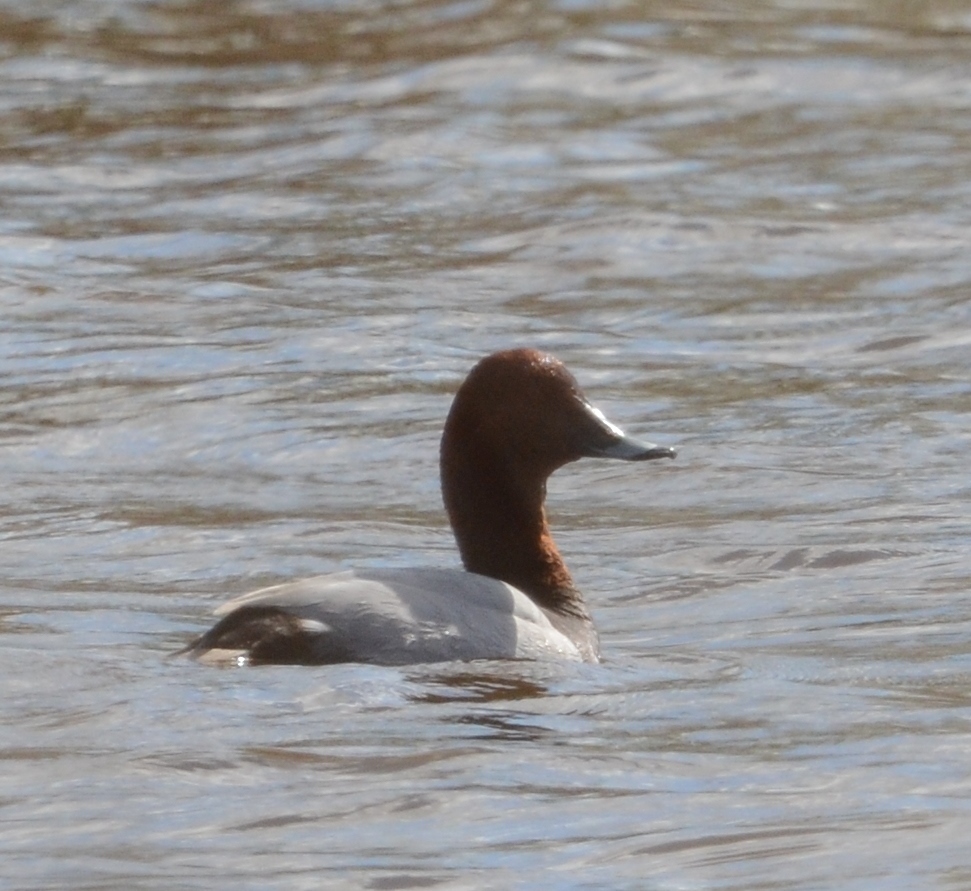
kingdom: Animalia
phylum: Chordata
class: Aves
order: Anseriformes
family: Anatidae
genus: Aythya
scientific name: Aythya ferina
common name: Common pochard
